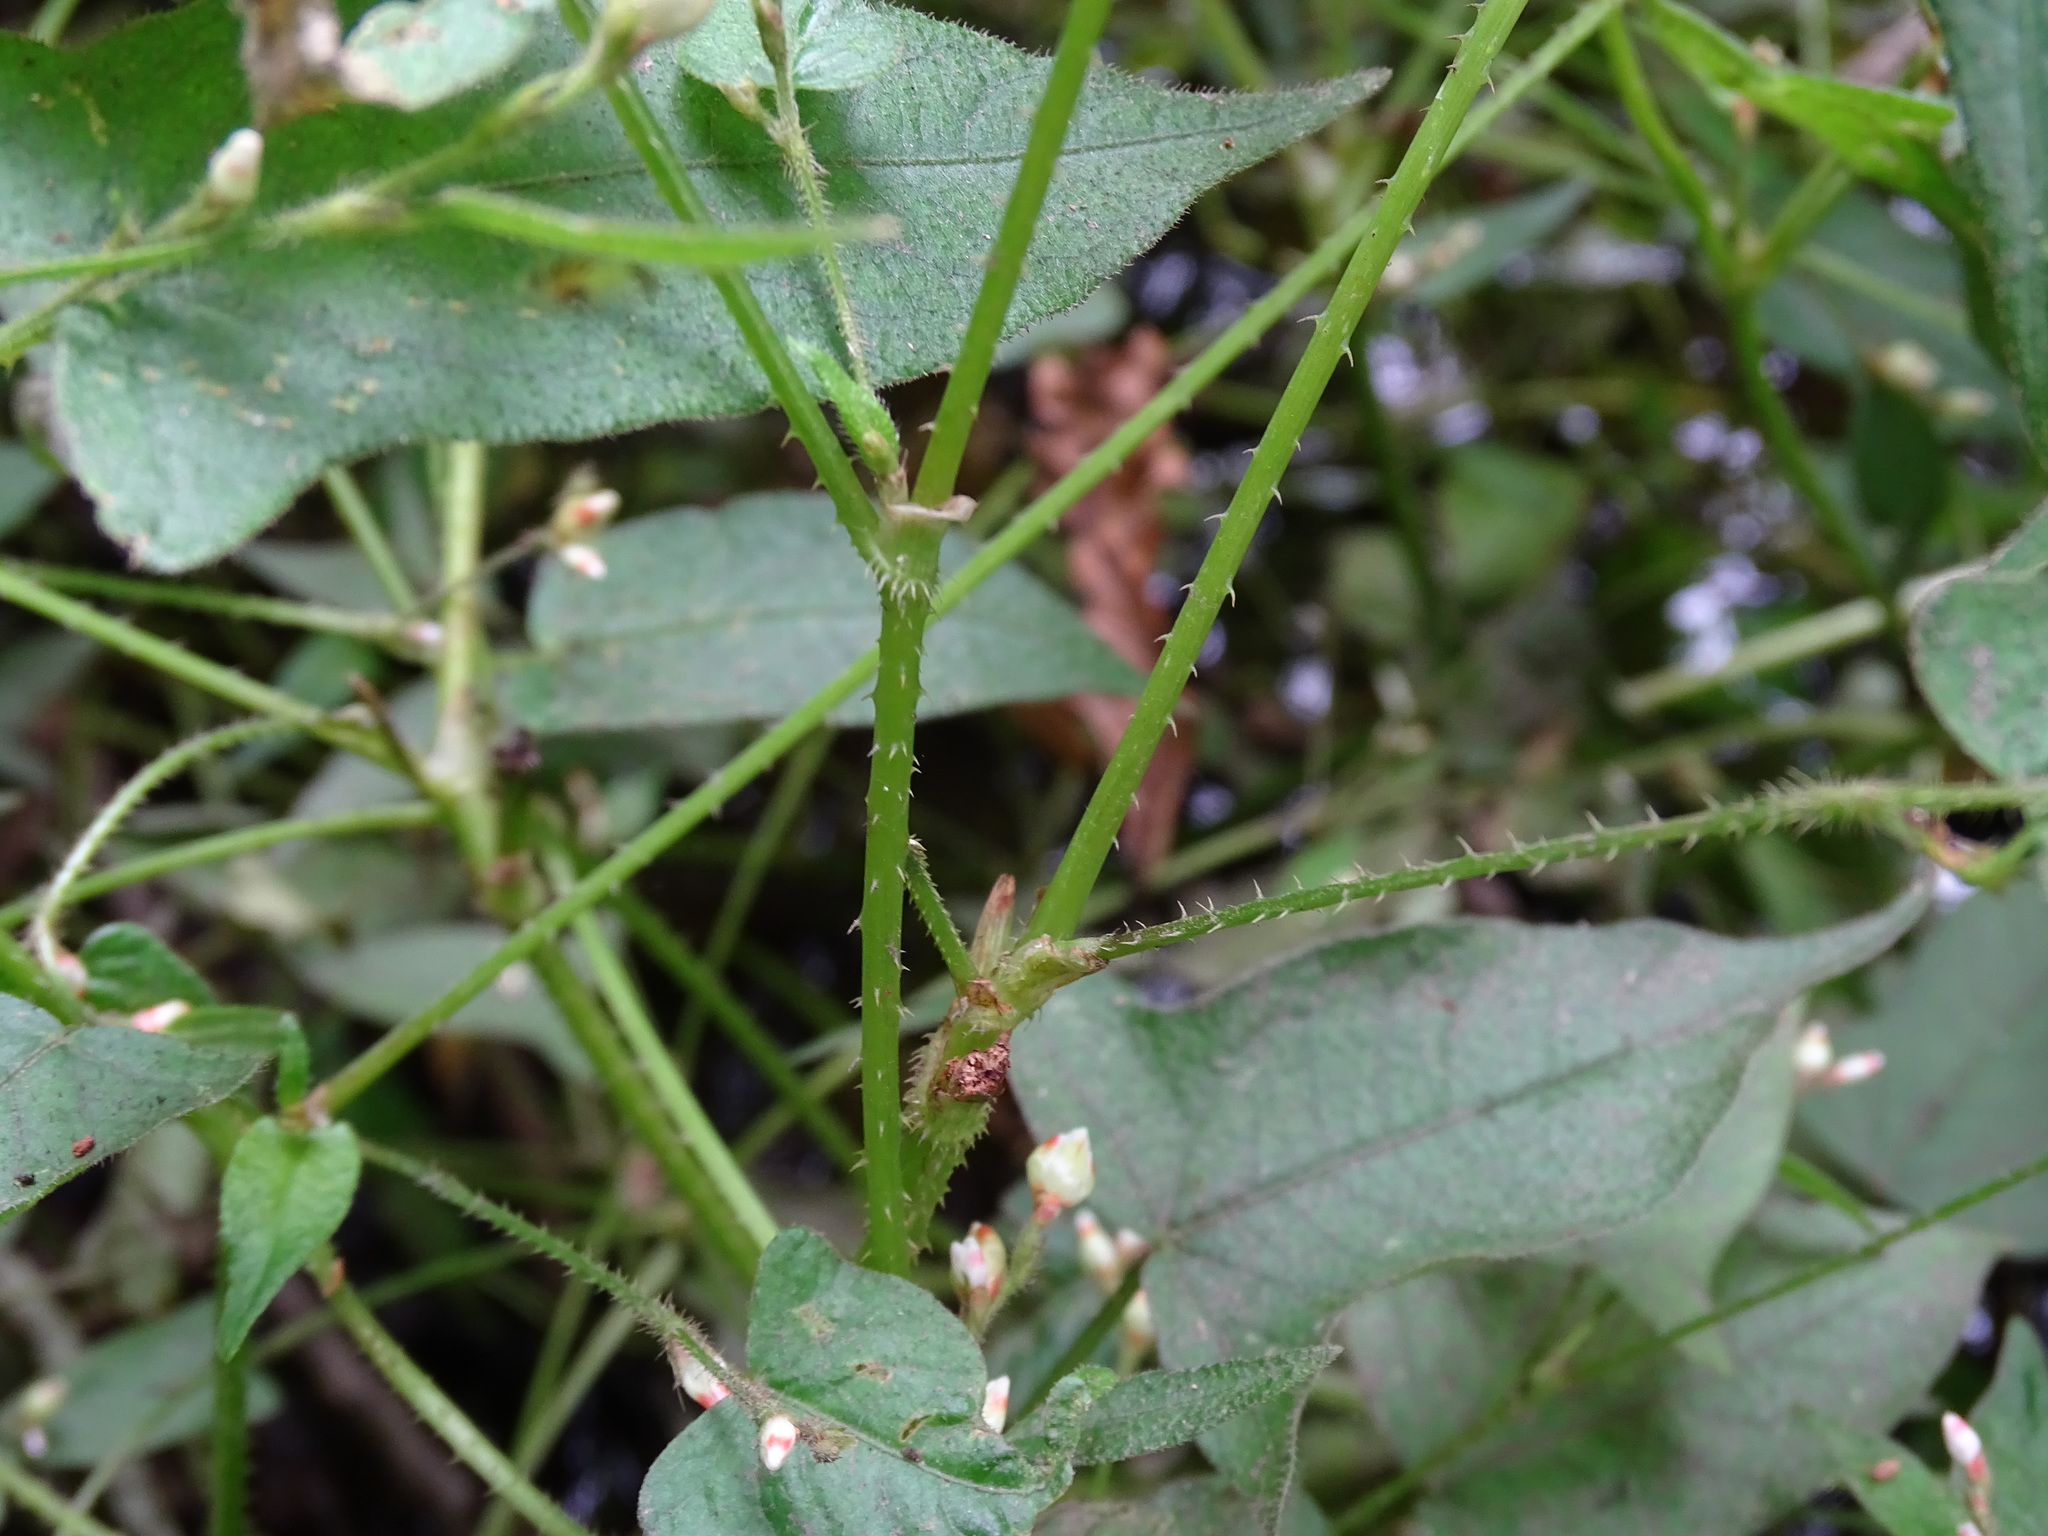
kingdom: Plantae
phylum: Tracheophyta
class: Magnoliopsida
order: Caryophyllales
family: Polygonaceae
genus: Persicaria
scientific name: Persicaria arifolia
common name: Halberd-leaved tear-thumb
